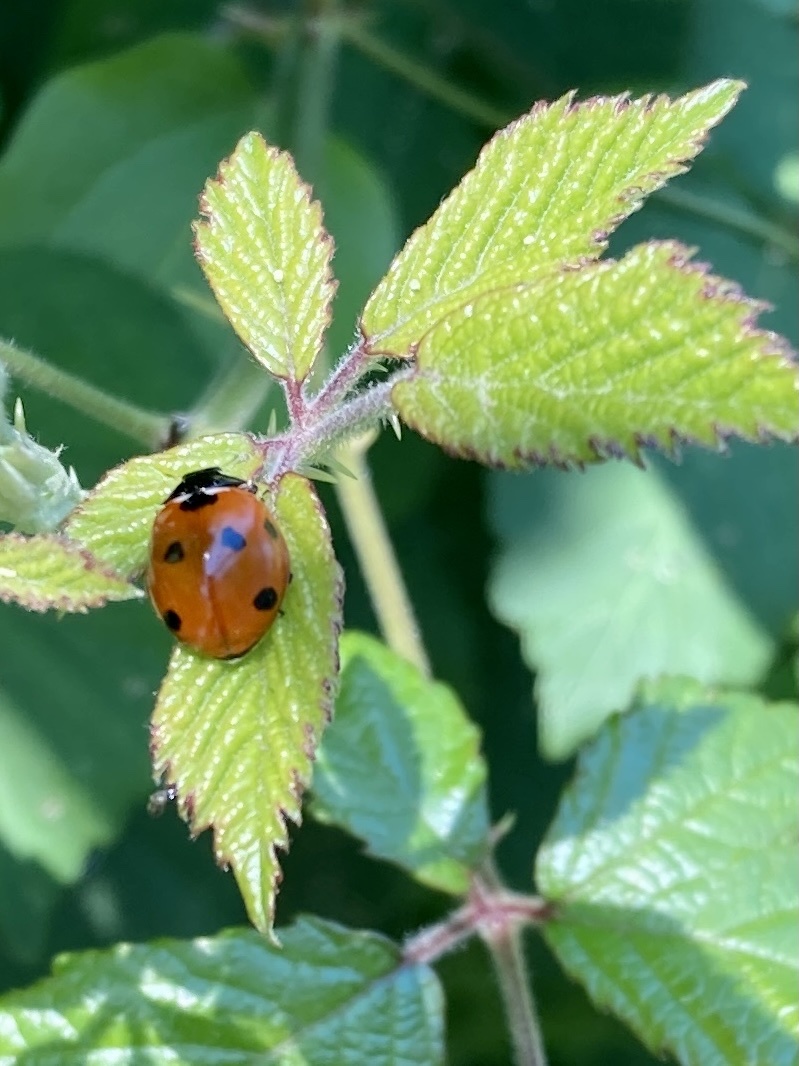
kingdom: Animalia
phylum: Arthropoda
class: Insecta
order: Coleoptera
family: Coccinellidae
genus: Coccinella
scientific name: Coccinella septempunctata
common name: Sevenspotted lady beetle
